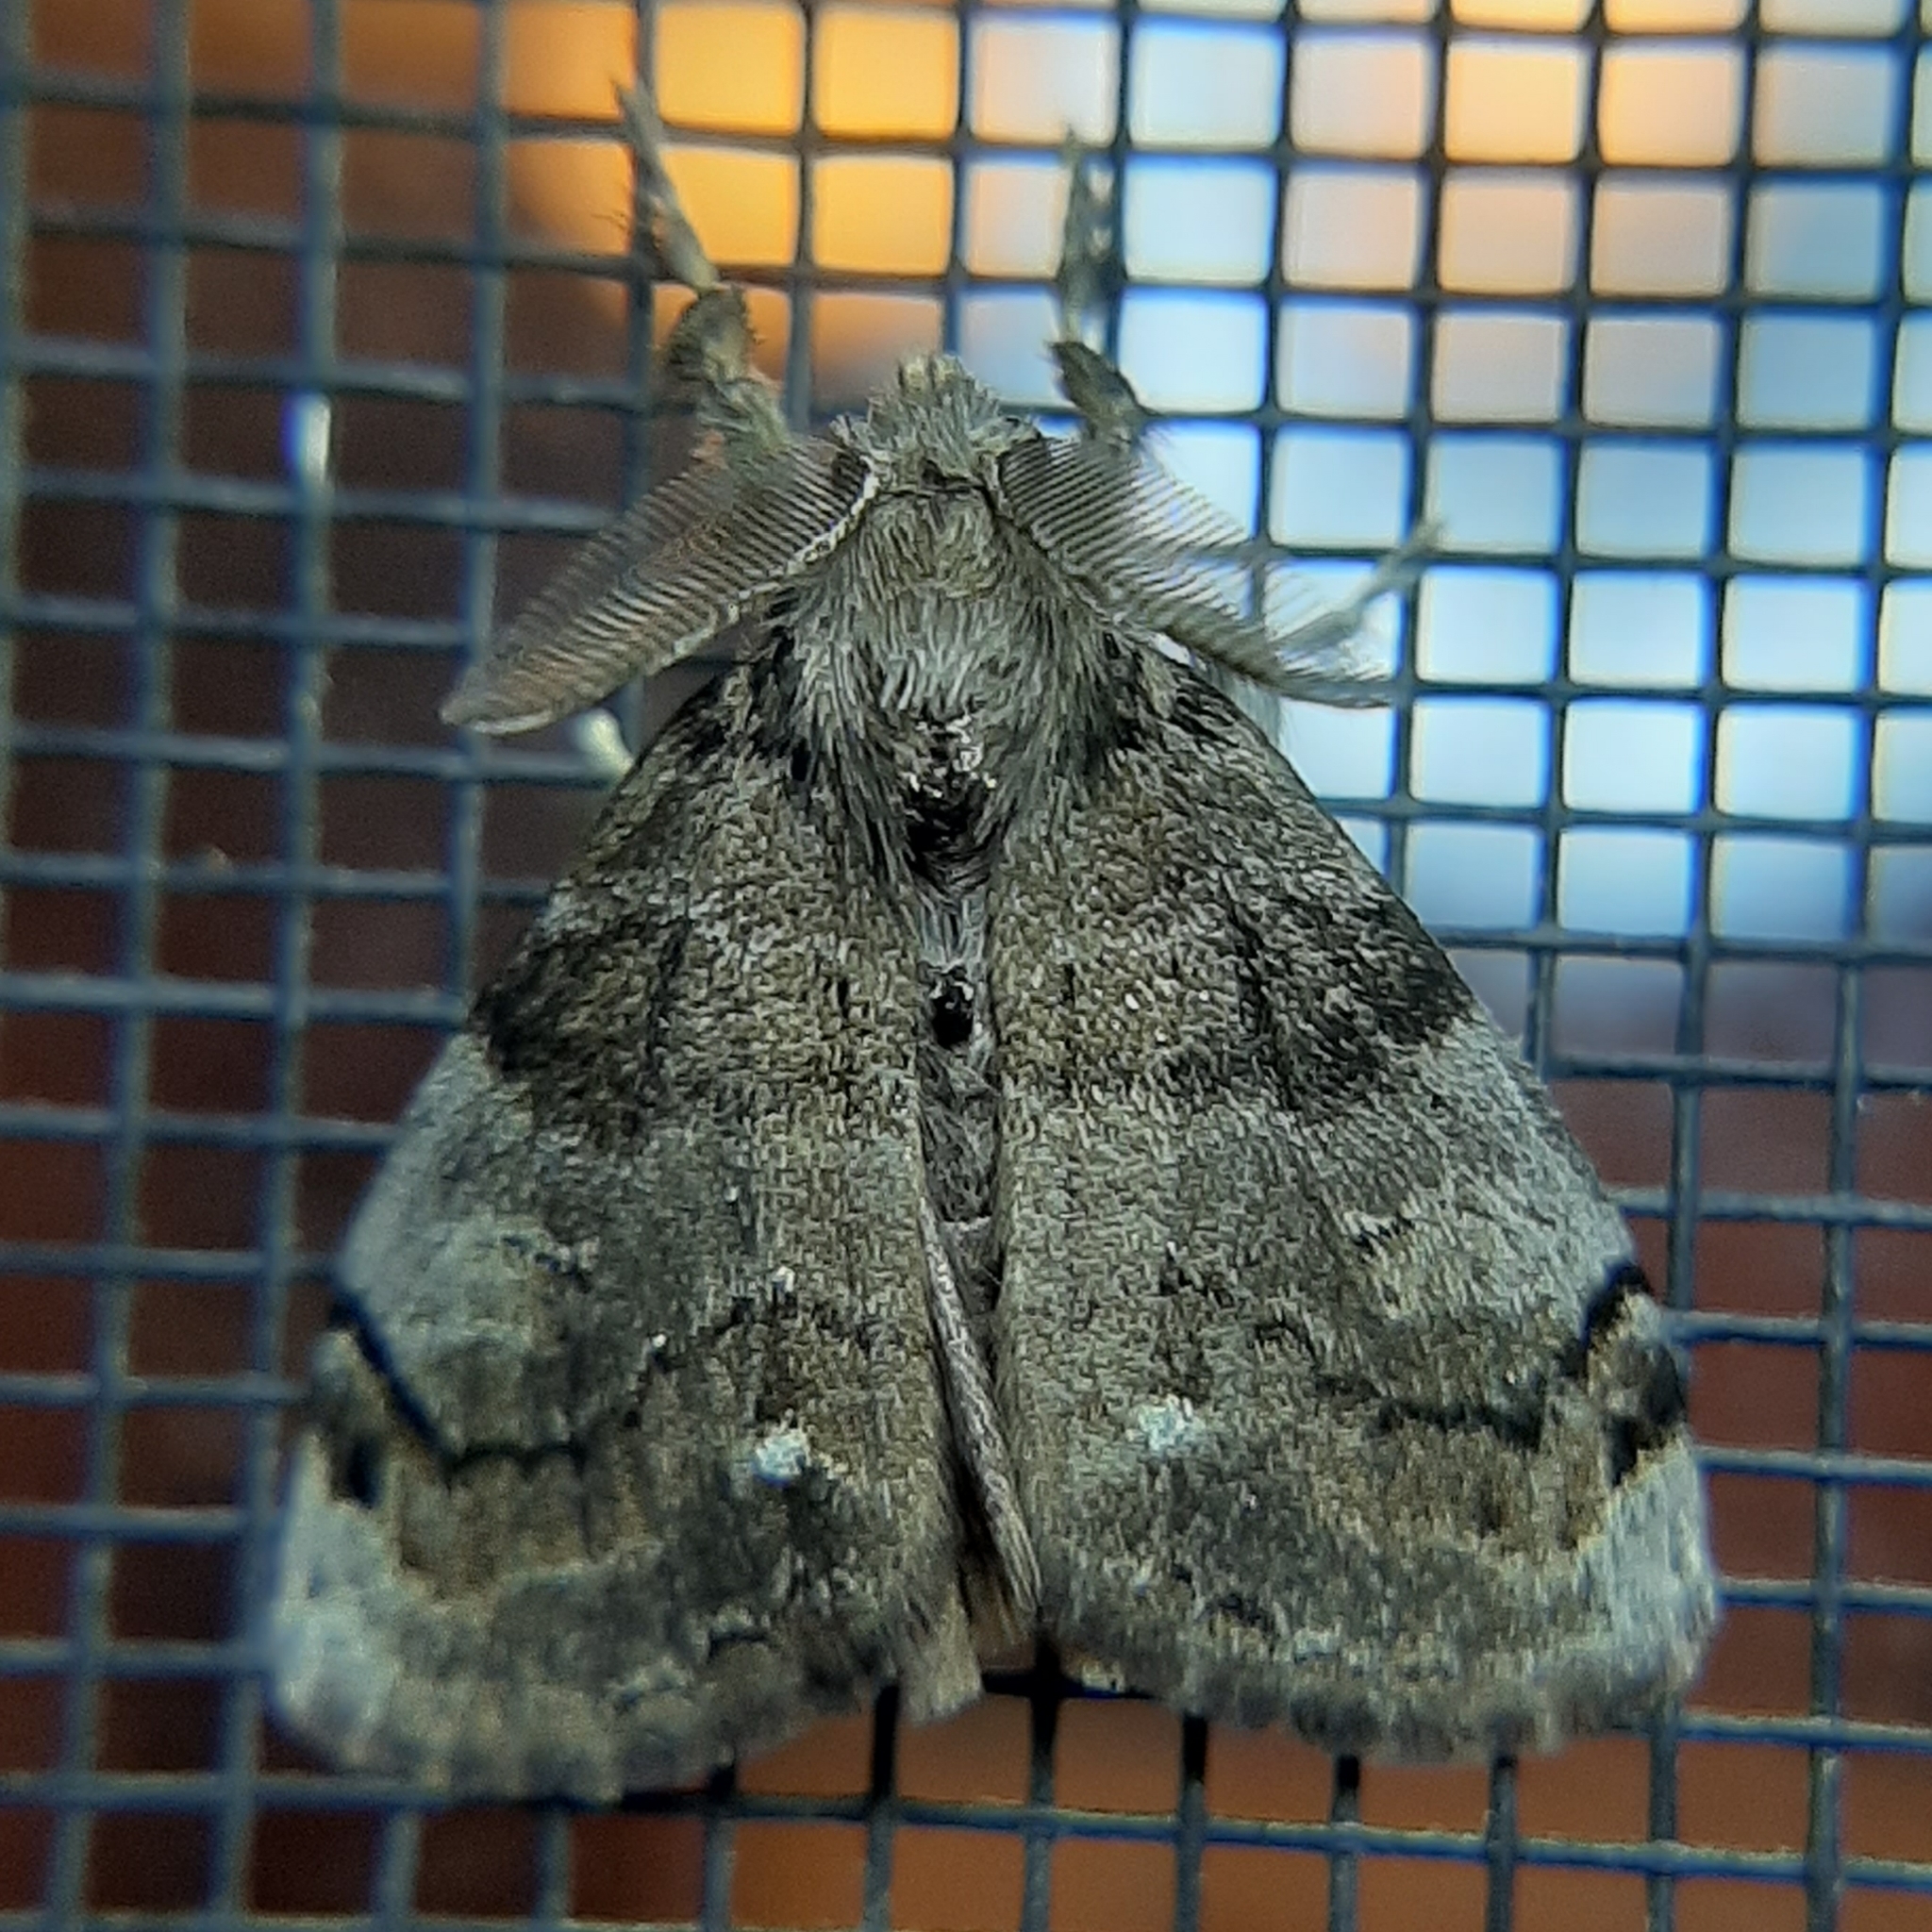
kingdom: Animalia
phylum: Arthropoda
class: Insecta
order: Lepidoptera
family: Erebidae
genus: Orgyia
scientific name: Orgyia leucostigma
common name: White-marked tussock moth
